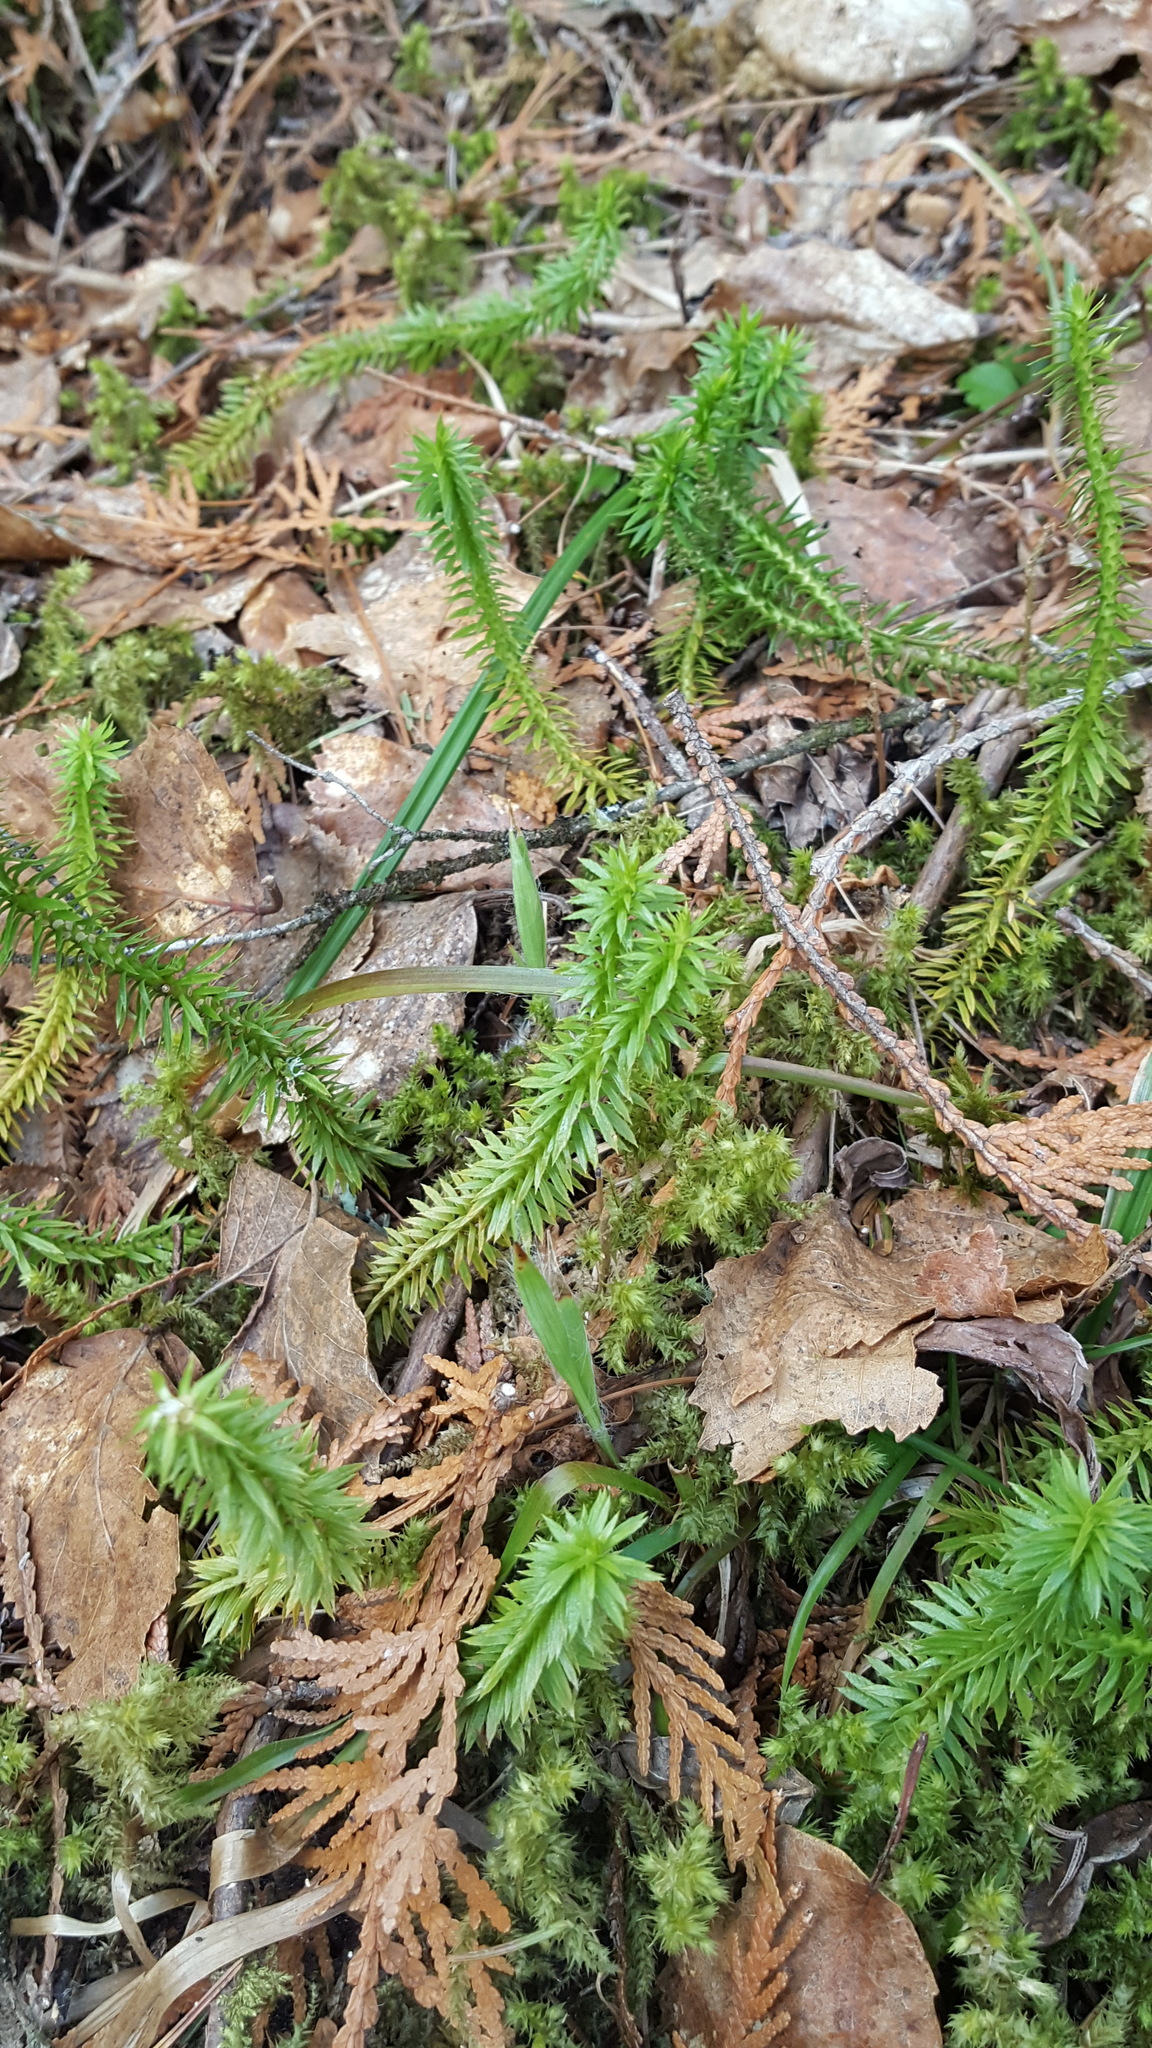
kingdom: Plantae
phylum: Tracheophyta
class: Lycopodiopsida
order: Lycopodiales
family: Lycopodiaceae
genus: Huperzia
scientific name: Huperzia lucidula
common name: Shining clubmoss
